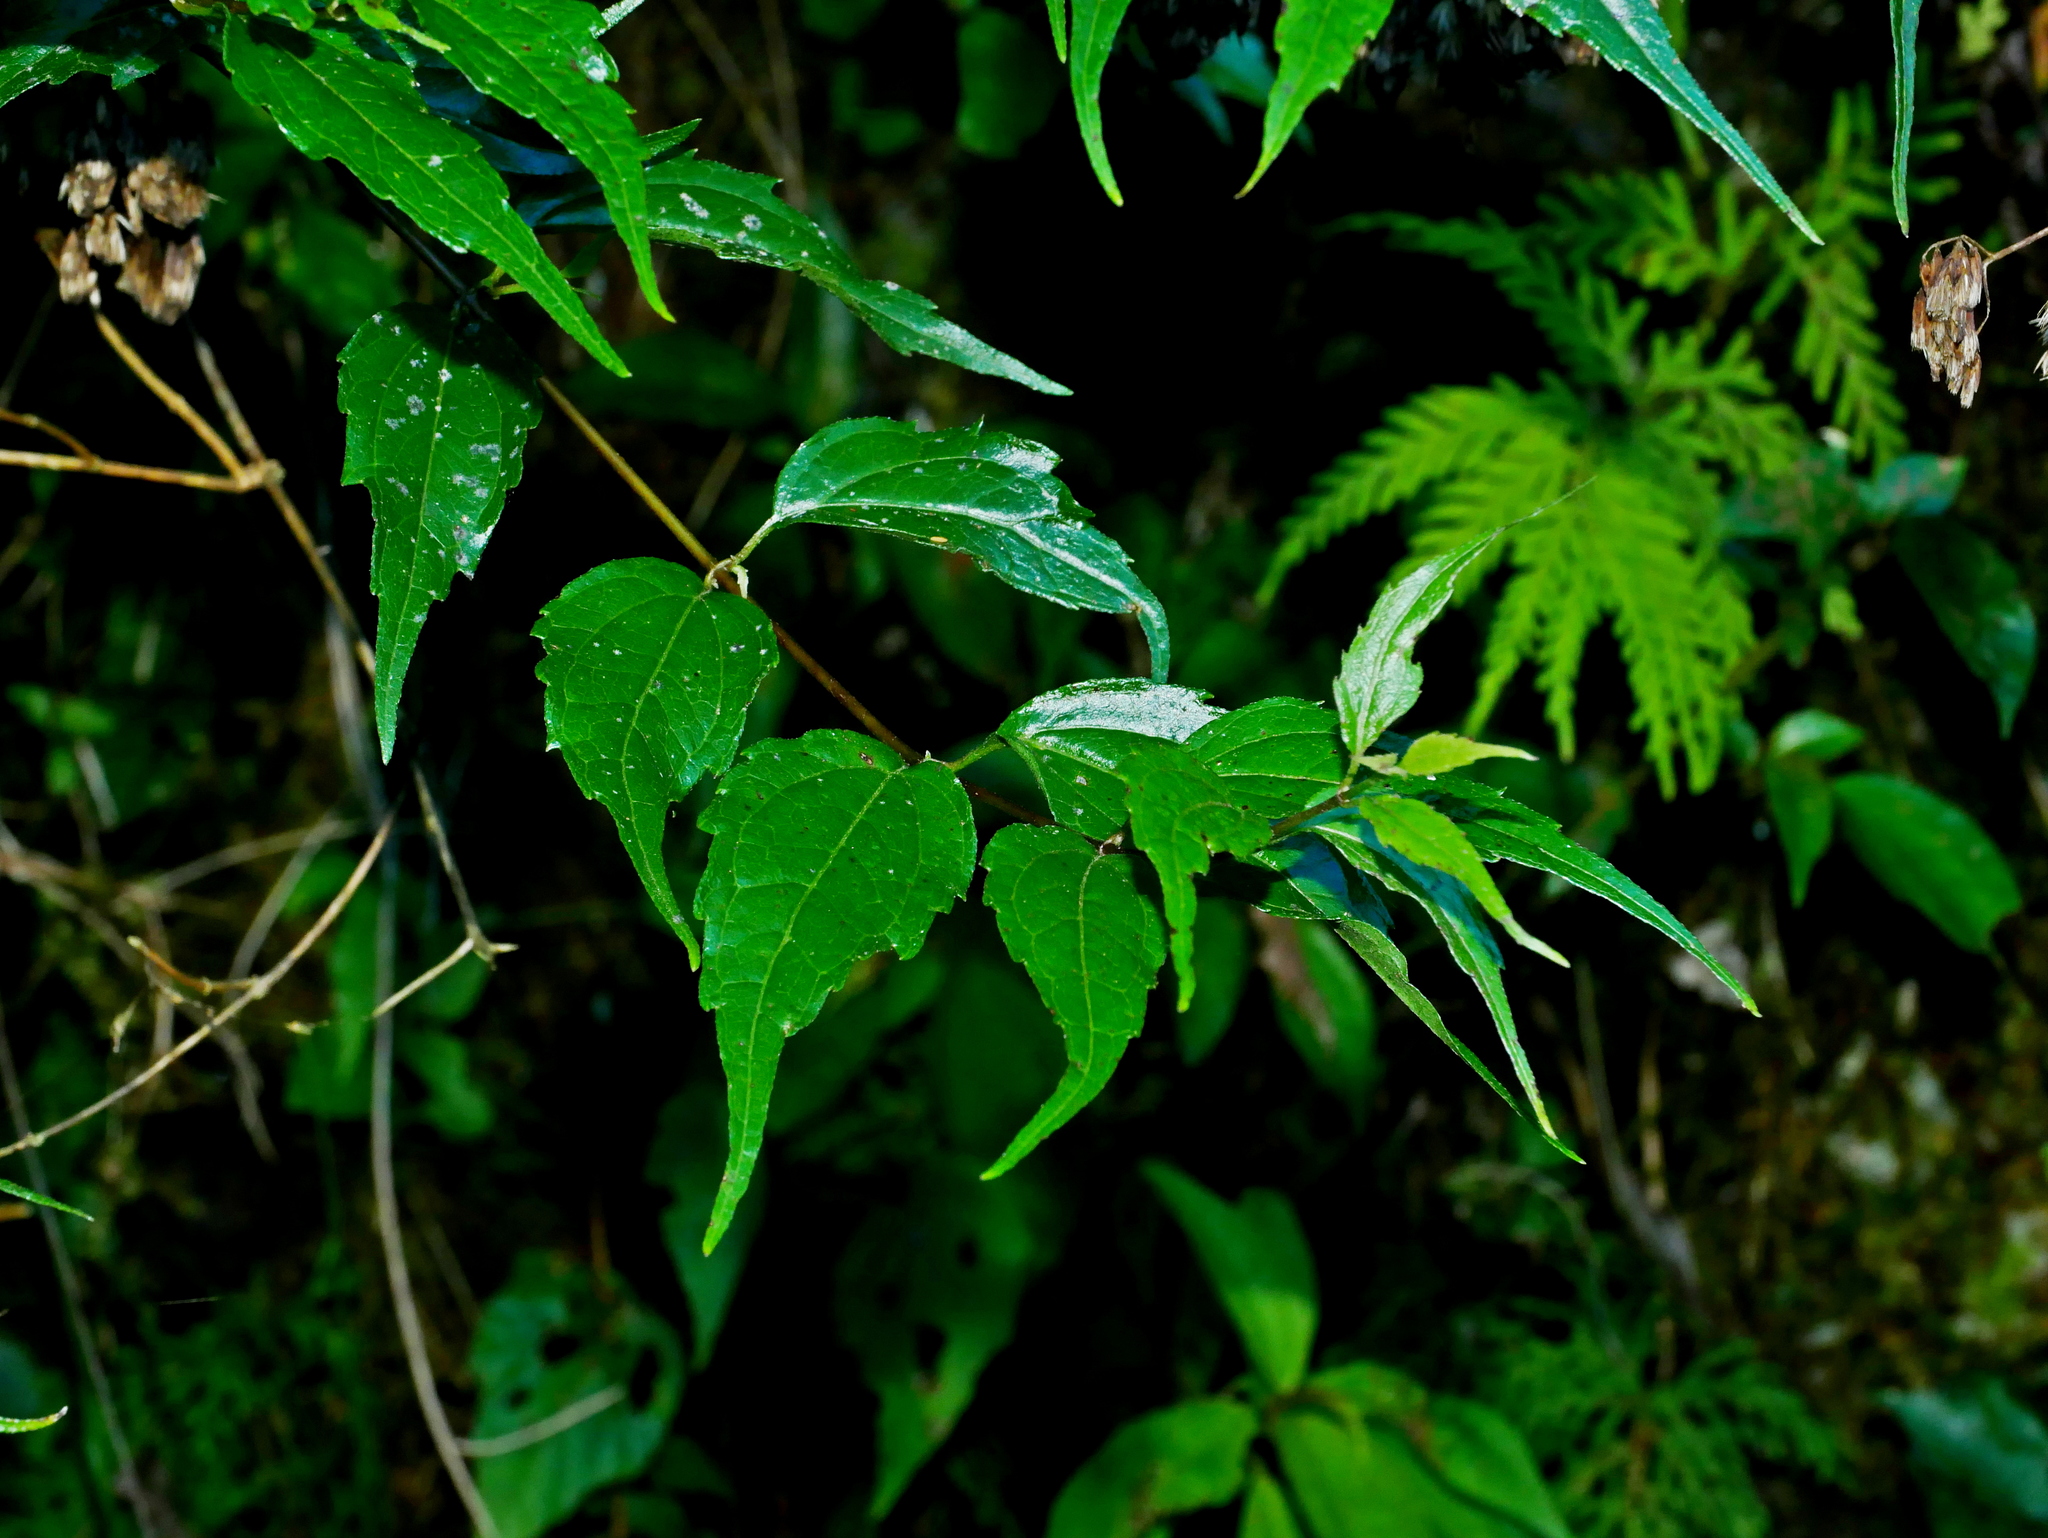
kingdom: Plantae
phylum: Tracheophyta
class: Magnoliopsida
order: Asterales
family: Asteraceae
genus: Eupatorium
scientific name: Eupatorium tashiroi
